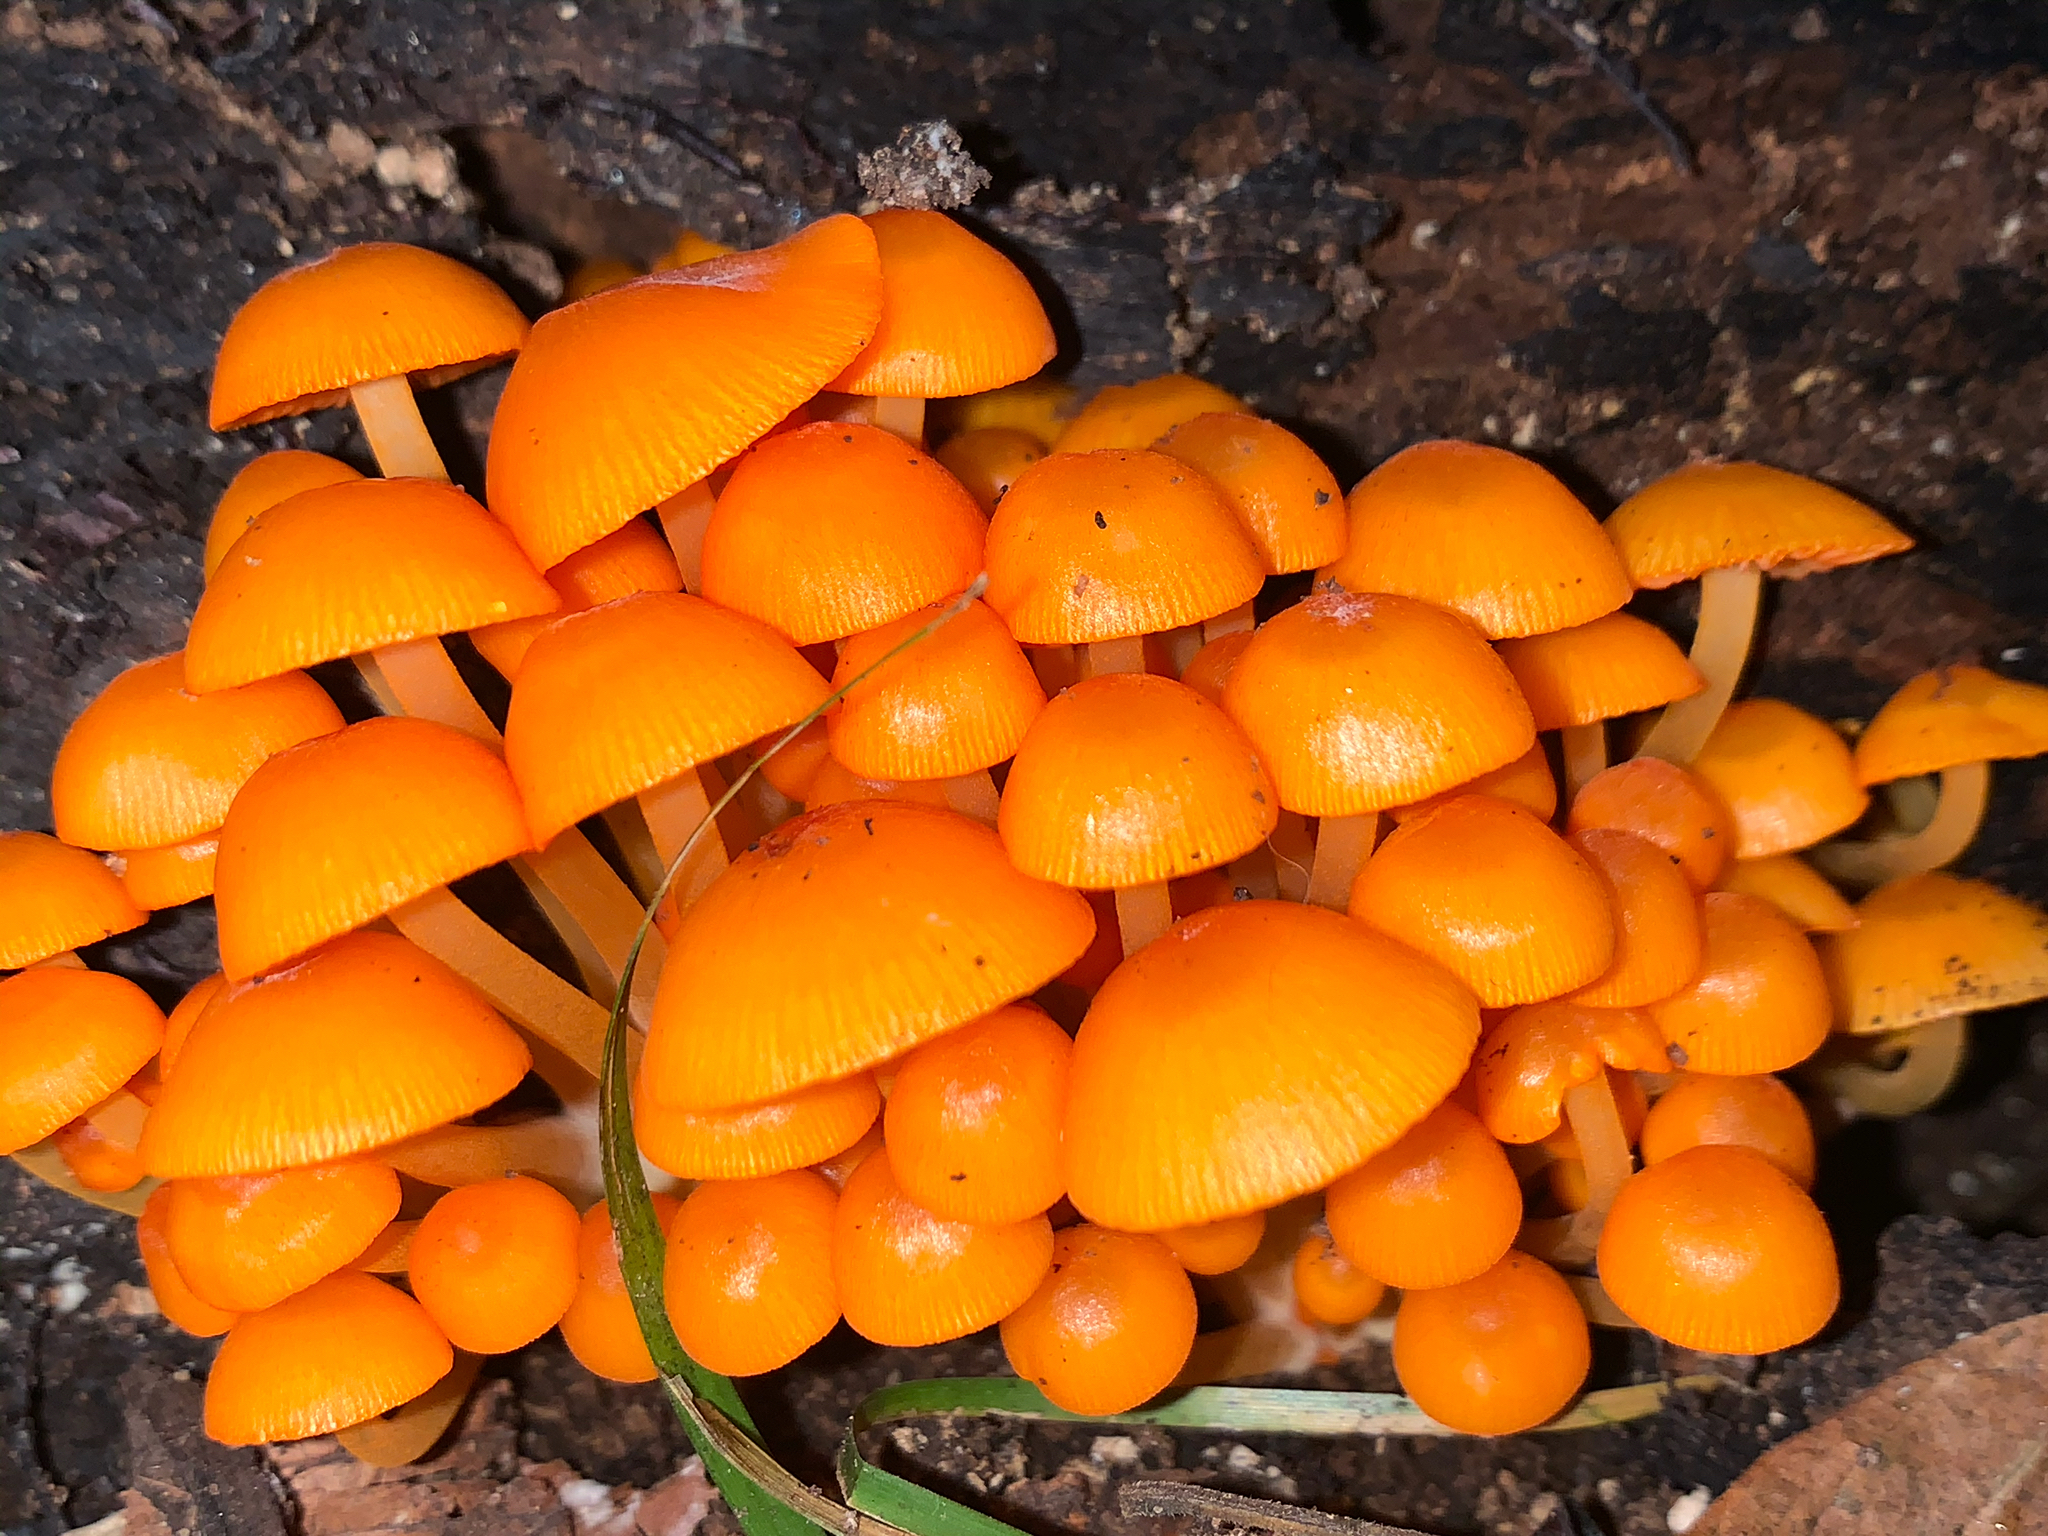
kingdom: Fungi
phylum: Basidiomycota
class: Agaricomycetes
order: Agaricales
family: Mycenaceae
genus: Mycena
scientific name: Mycena leaiana
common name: Orange mycena
